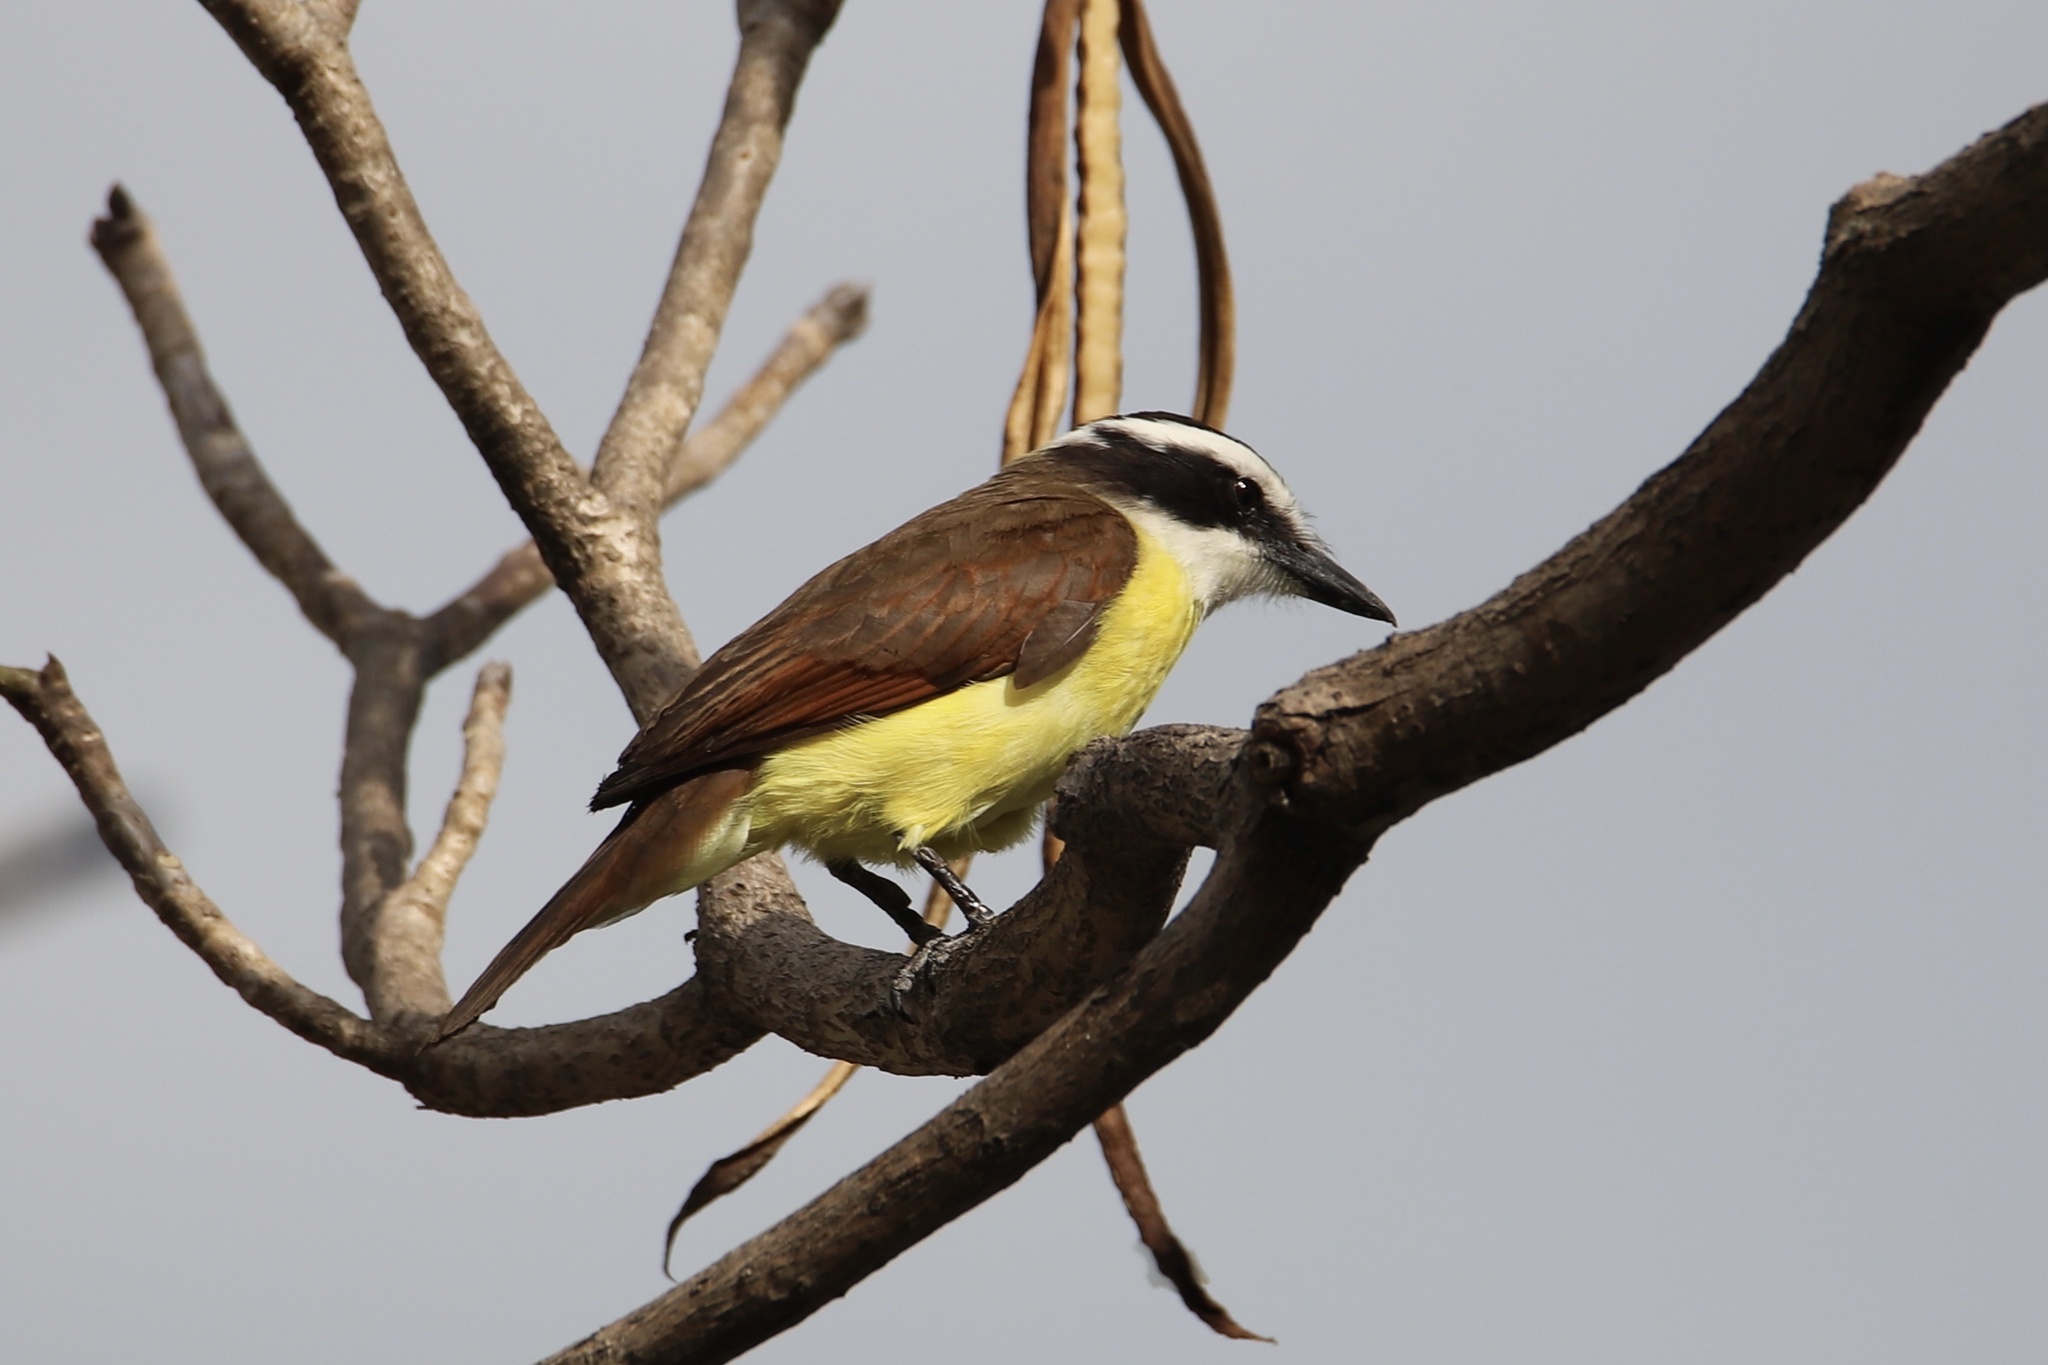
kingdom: Animalia
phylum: Chordata
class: Aves
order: Passeriformes
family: Tyrannidae
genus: Pitangus
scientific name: Pitangus sulphuratus
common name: Great kiskadee
